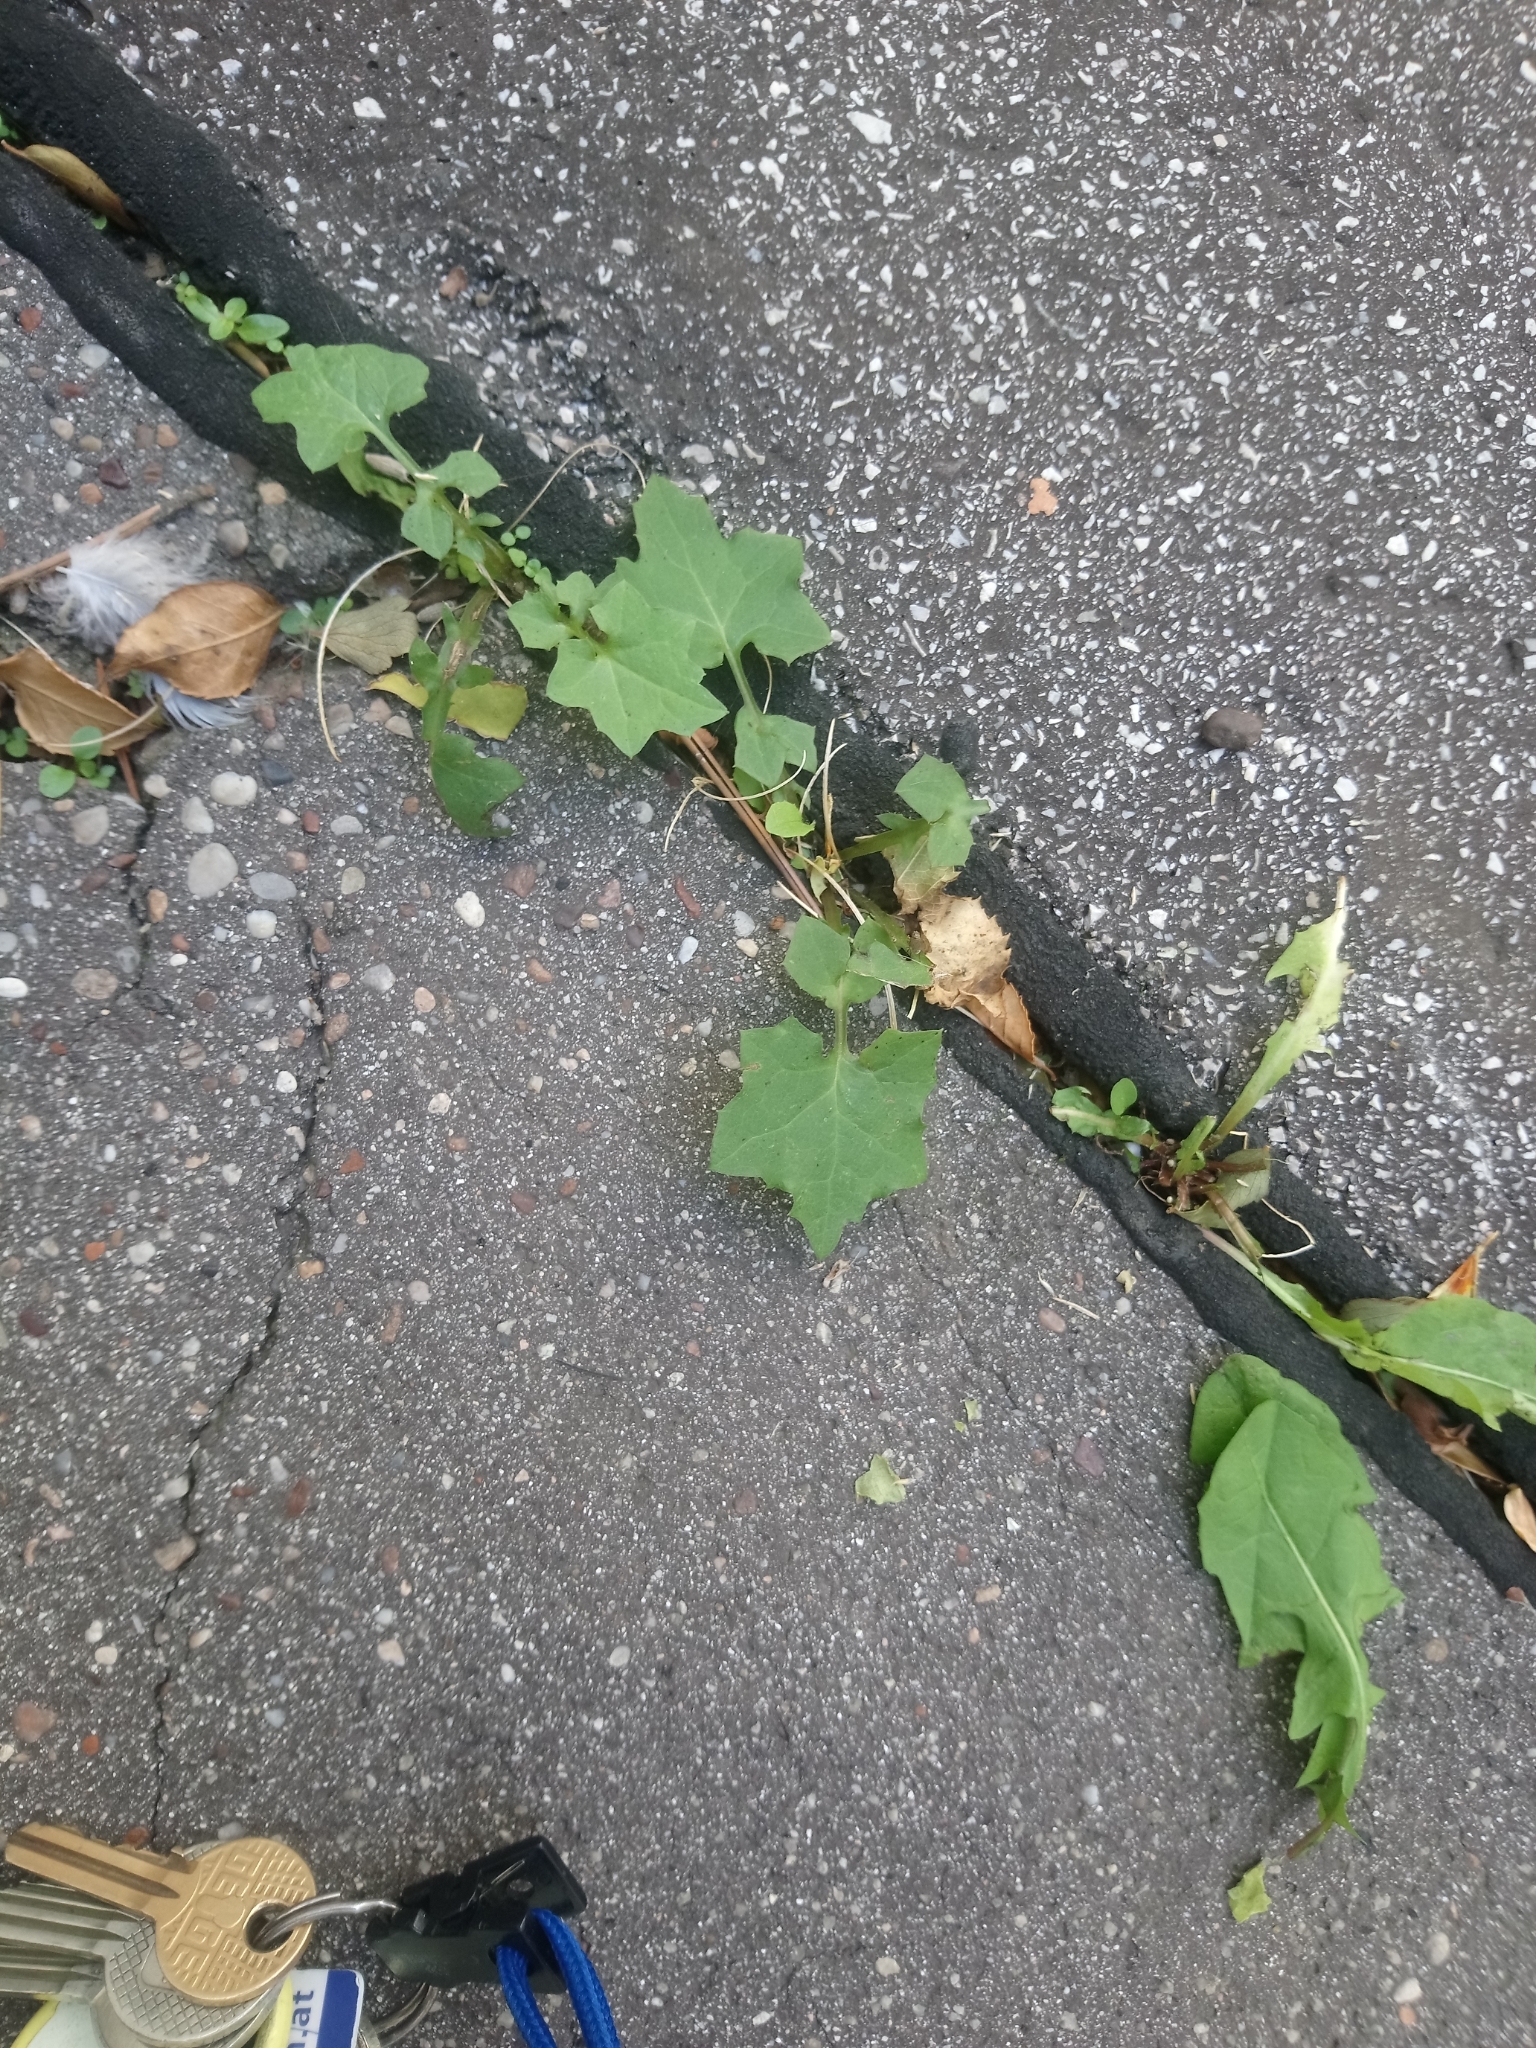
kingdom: Plantae
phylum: Tracheophyta
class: Magnoliopsida
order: Asterales
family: Asteraceae
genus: Mycelis
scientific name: Mycelis muralis
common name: Wall lettuce
